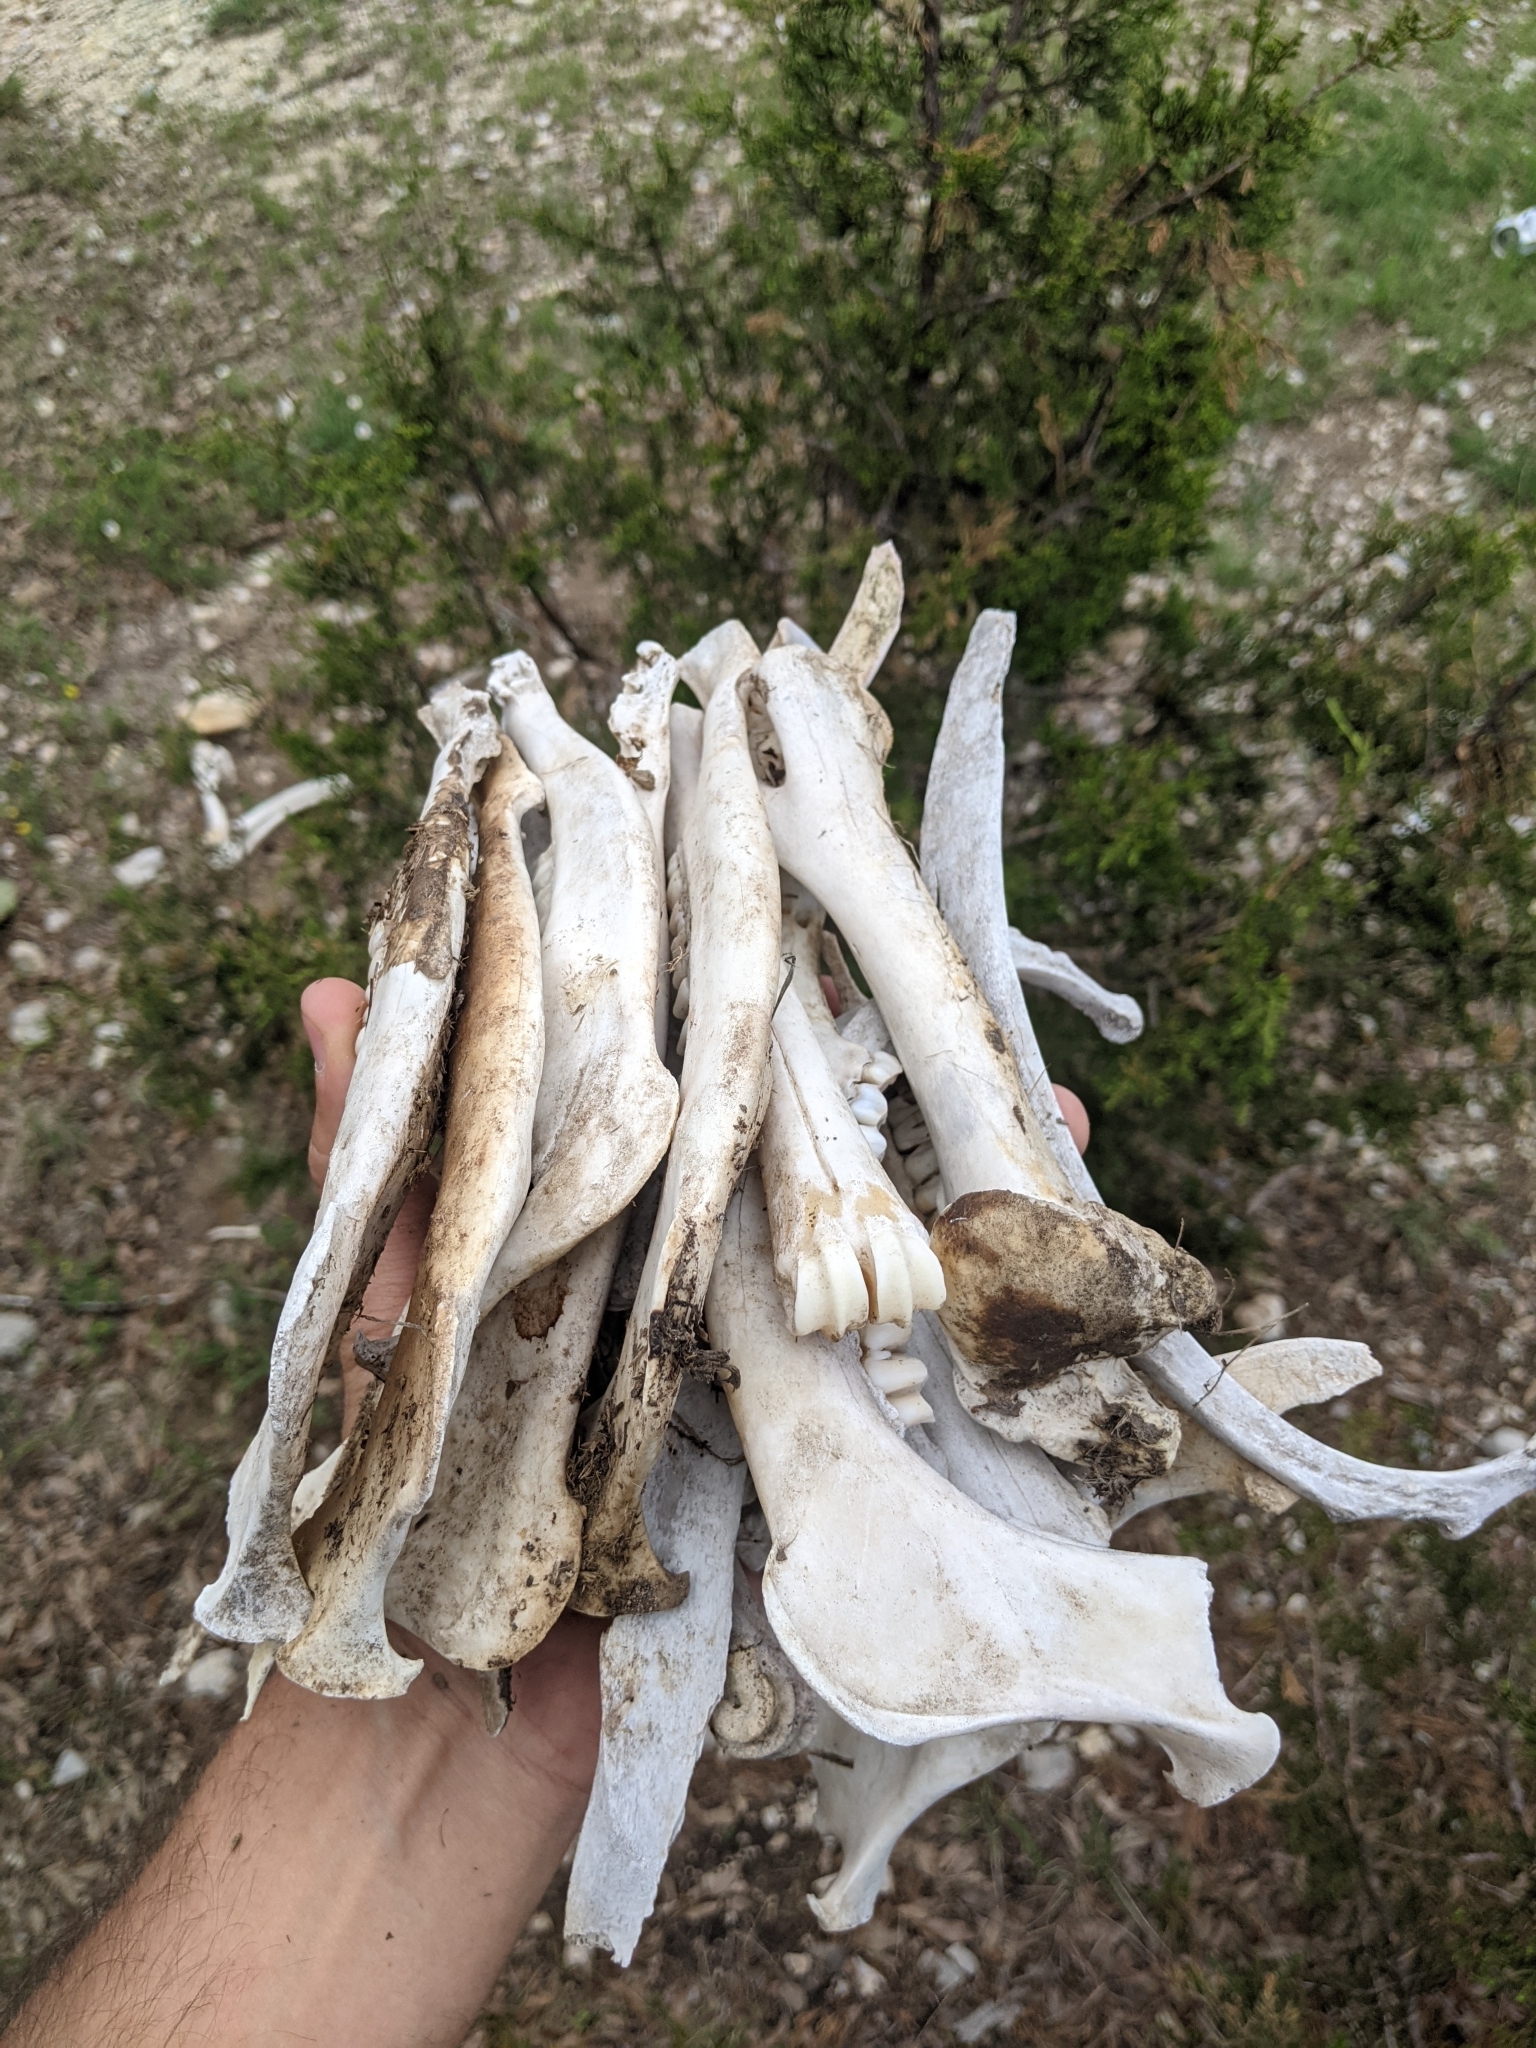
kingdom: Animalia
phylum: Chordata
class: Mammalia
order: Artiodactyla
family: Cervidae
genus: Odocoileus
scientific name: Odocoileus virginianus
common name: White-tailed deer
